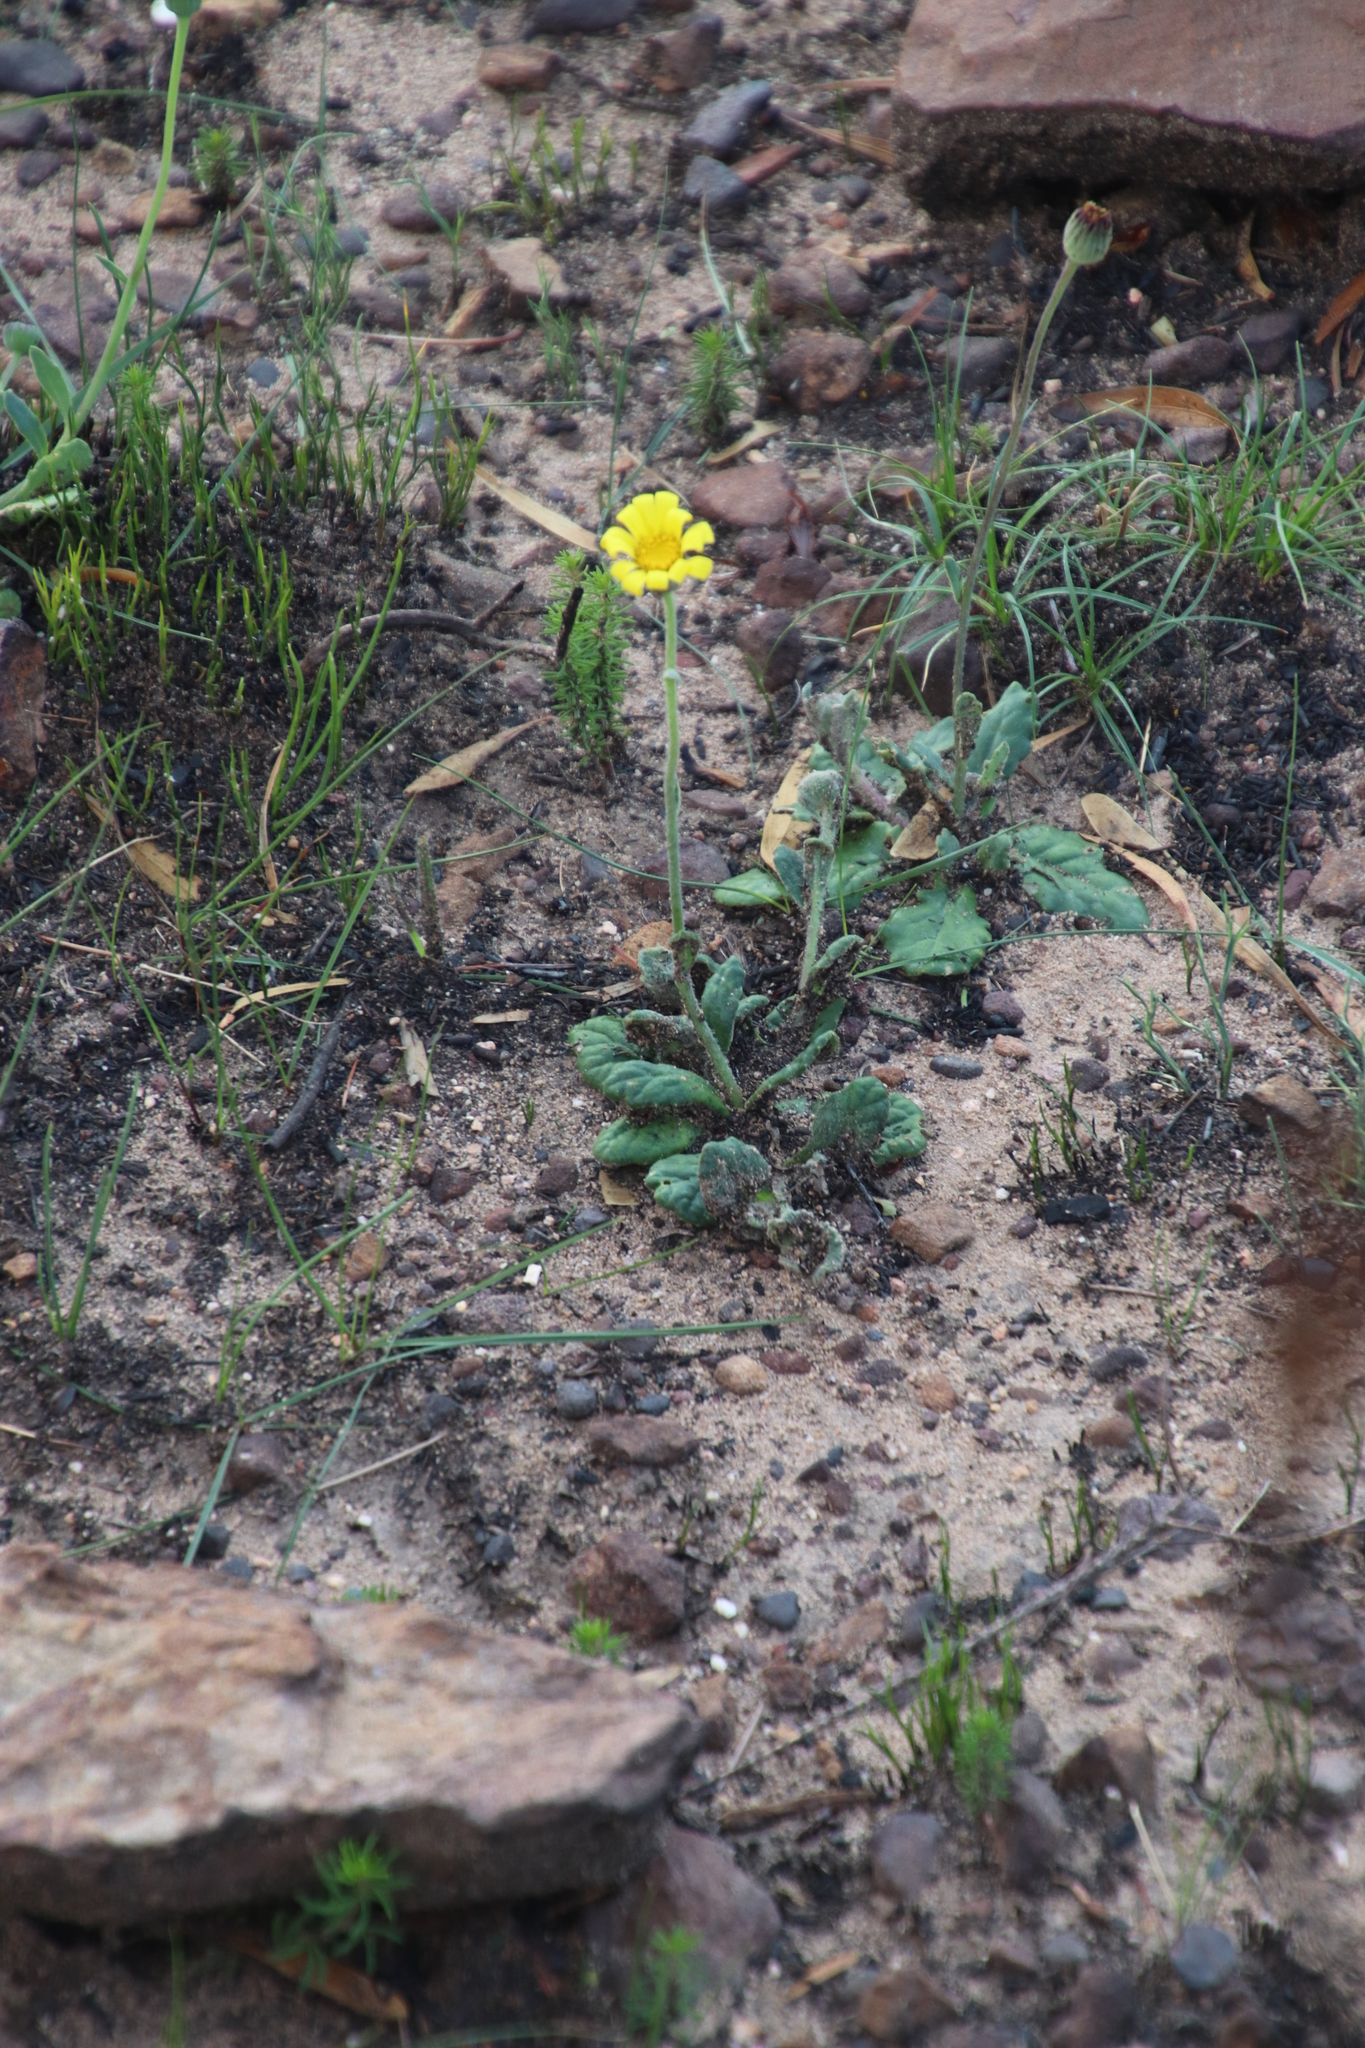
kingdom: Plantae
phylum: Tracheophyta
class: Magnoliopsida
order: Asterales
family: Asteraceae
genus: Othonna
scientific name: Othonna heterophylla
